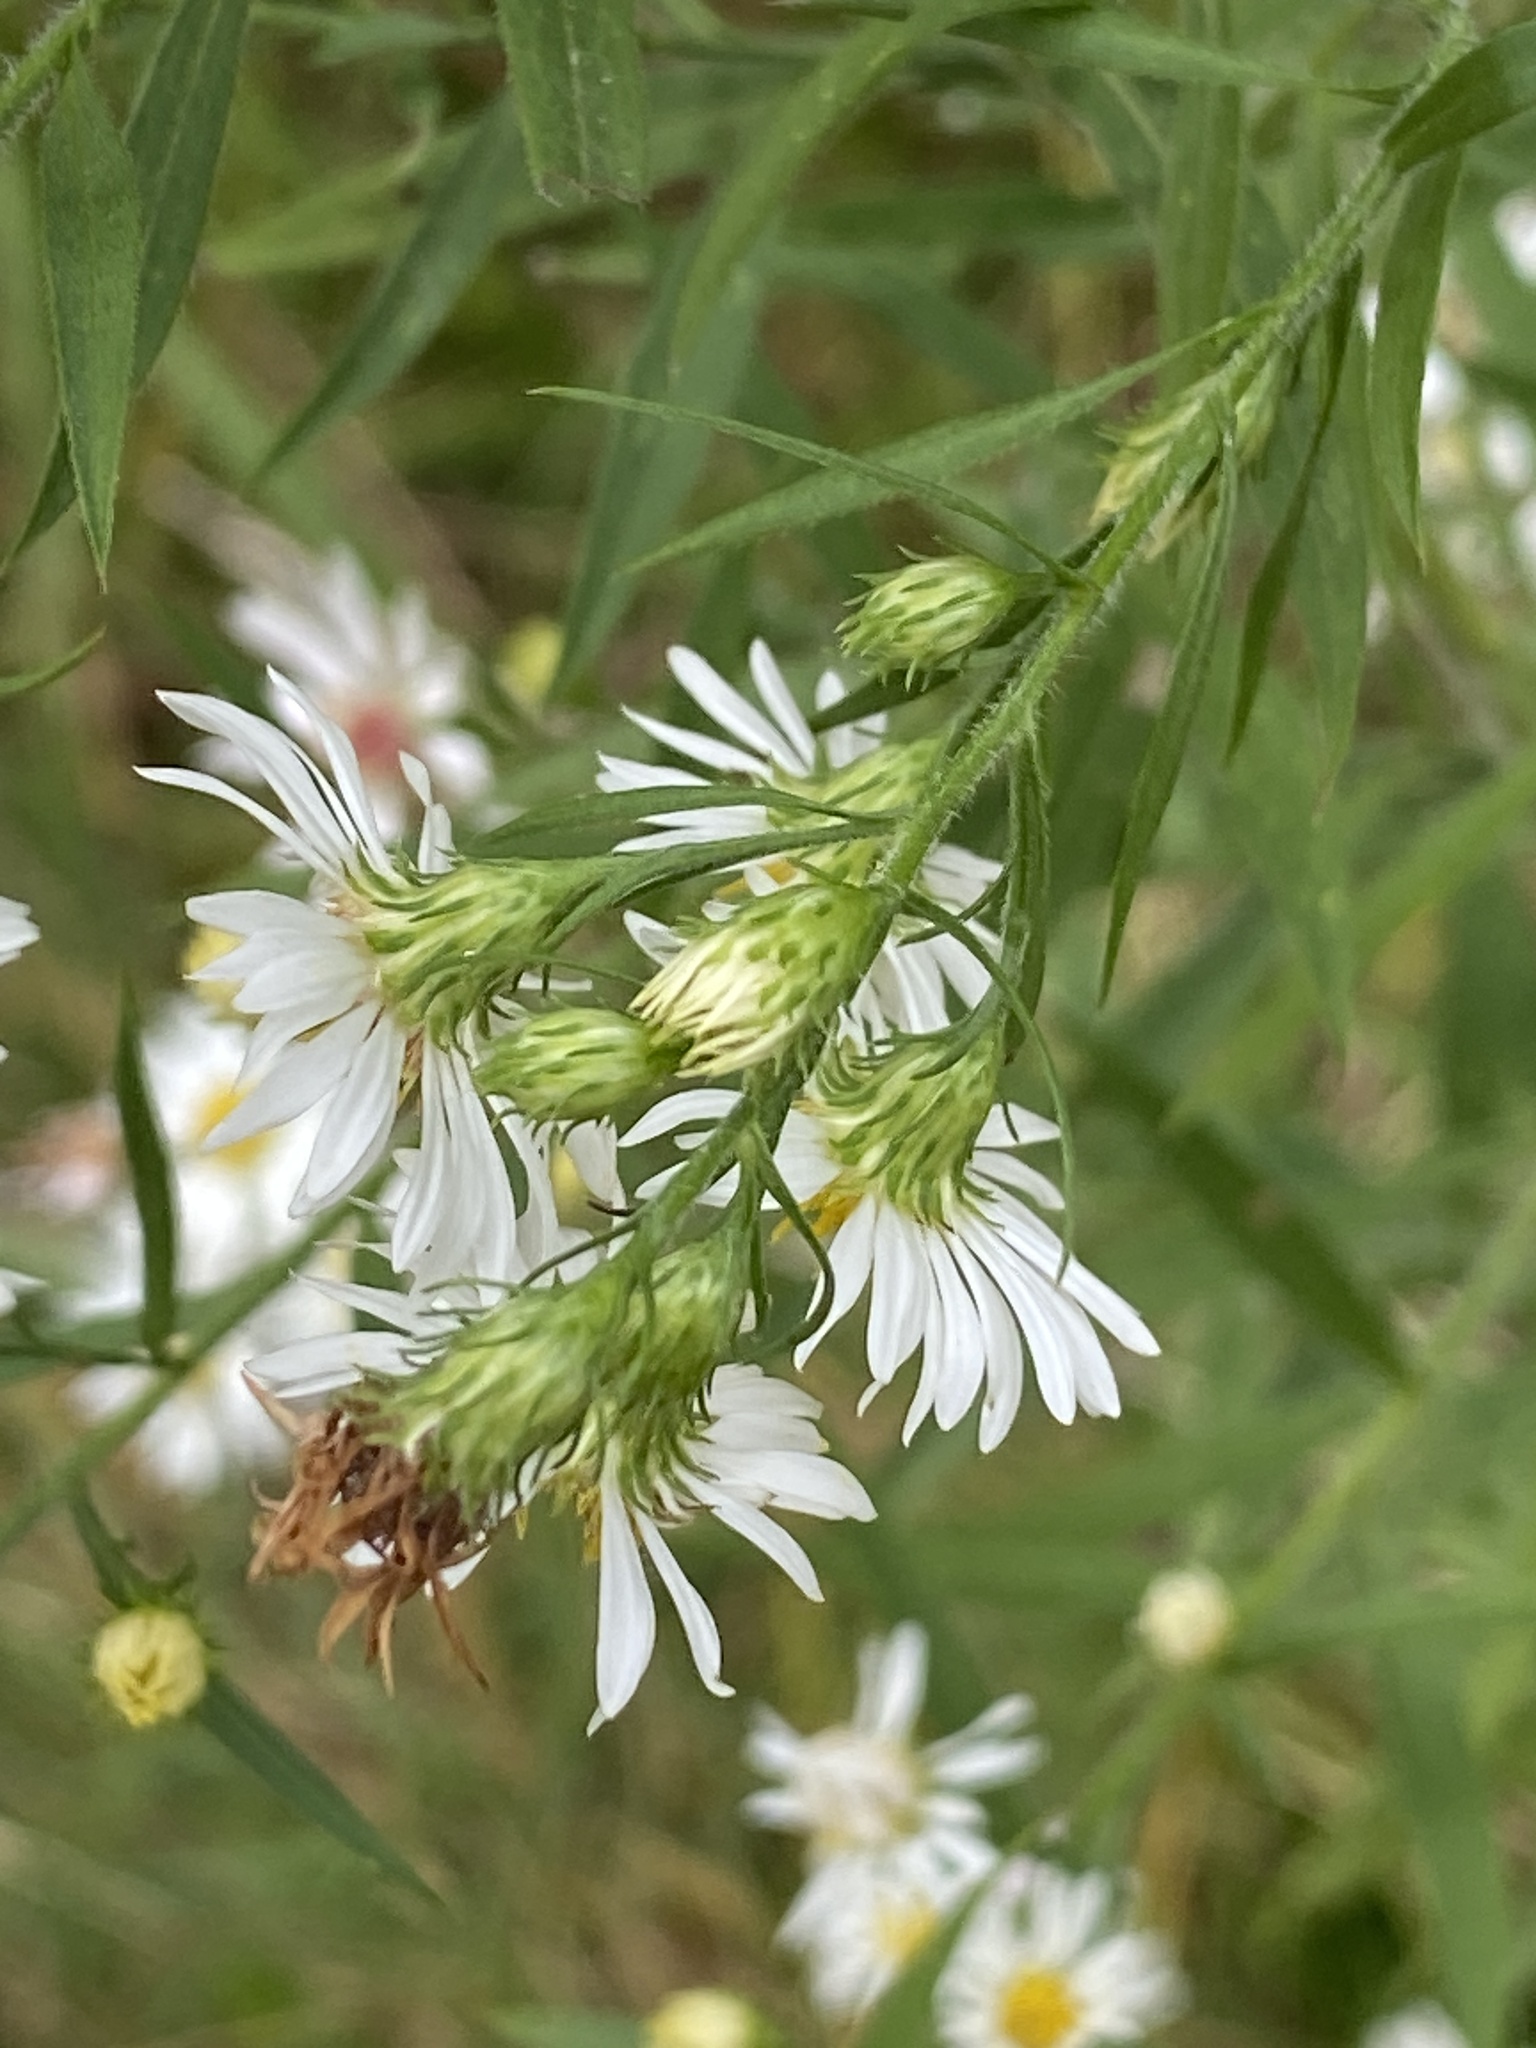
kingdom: Plantae
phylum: Tracheophyta
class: Magnoliopsida
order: Asterales
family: Asteraceae
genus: Symphyotrichum
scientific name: Symphyotrichum lanceolatum
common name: Panicled aster
